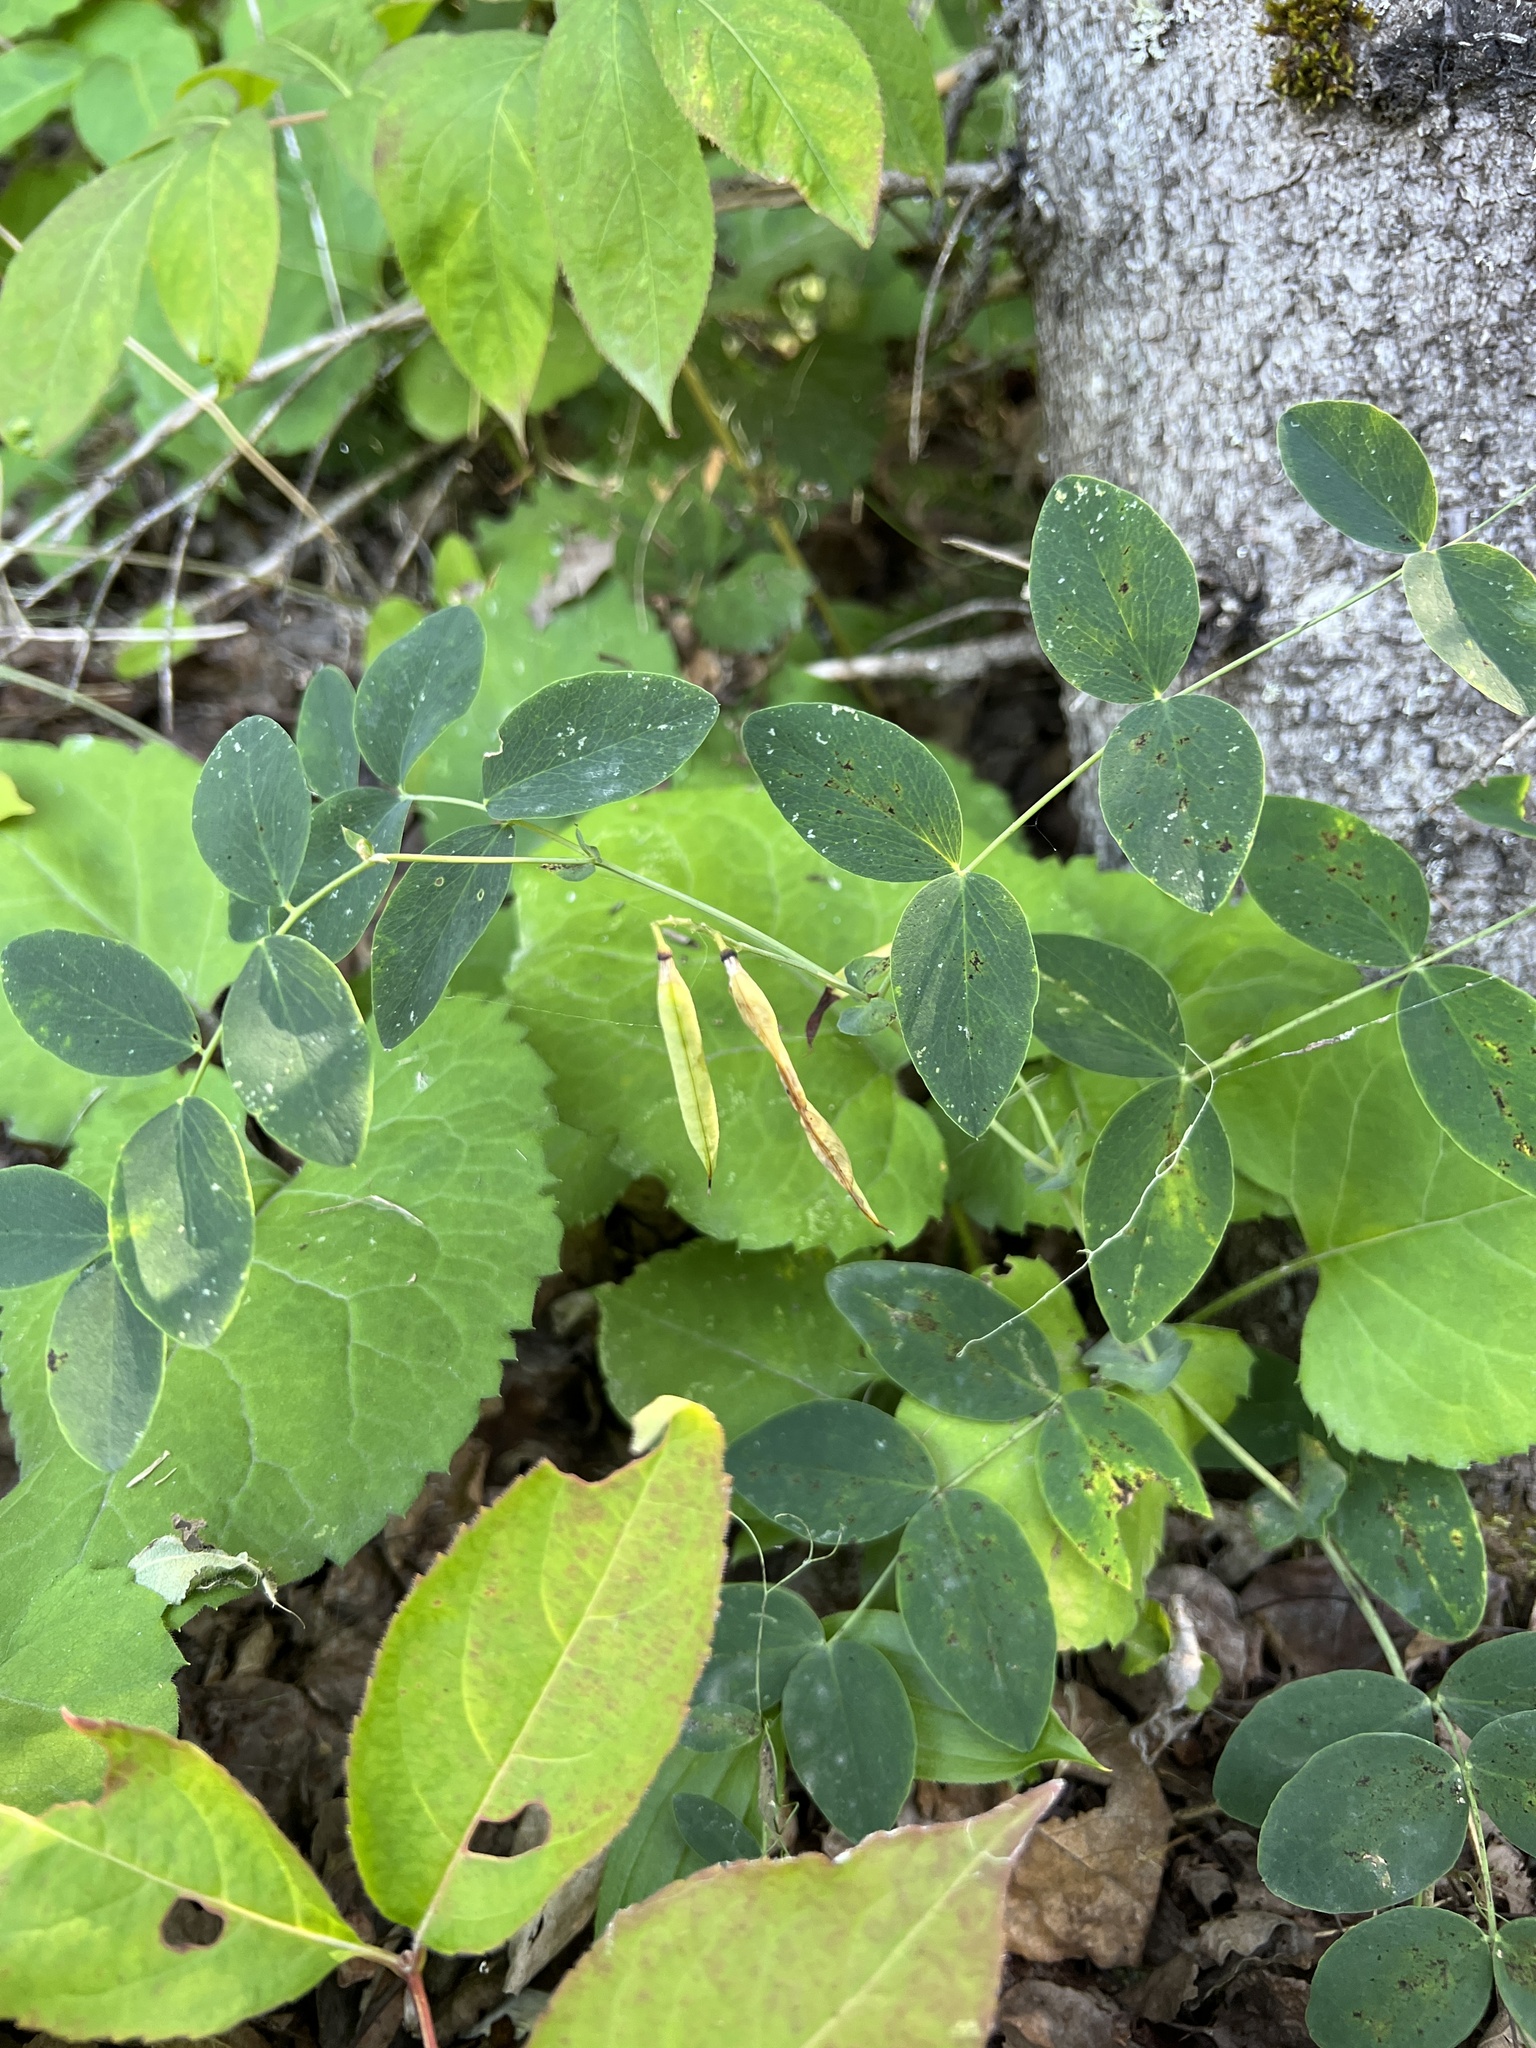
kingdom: Plantae
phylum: Tracheophyta
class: Magnoliopsida
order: Fabales
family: Fabaceae
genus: Lathyrus
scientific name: Lathyrus ochroleucus
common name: Pale vetchling
